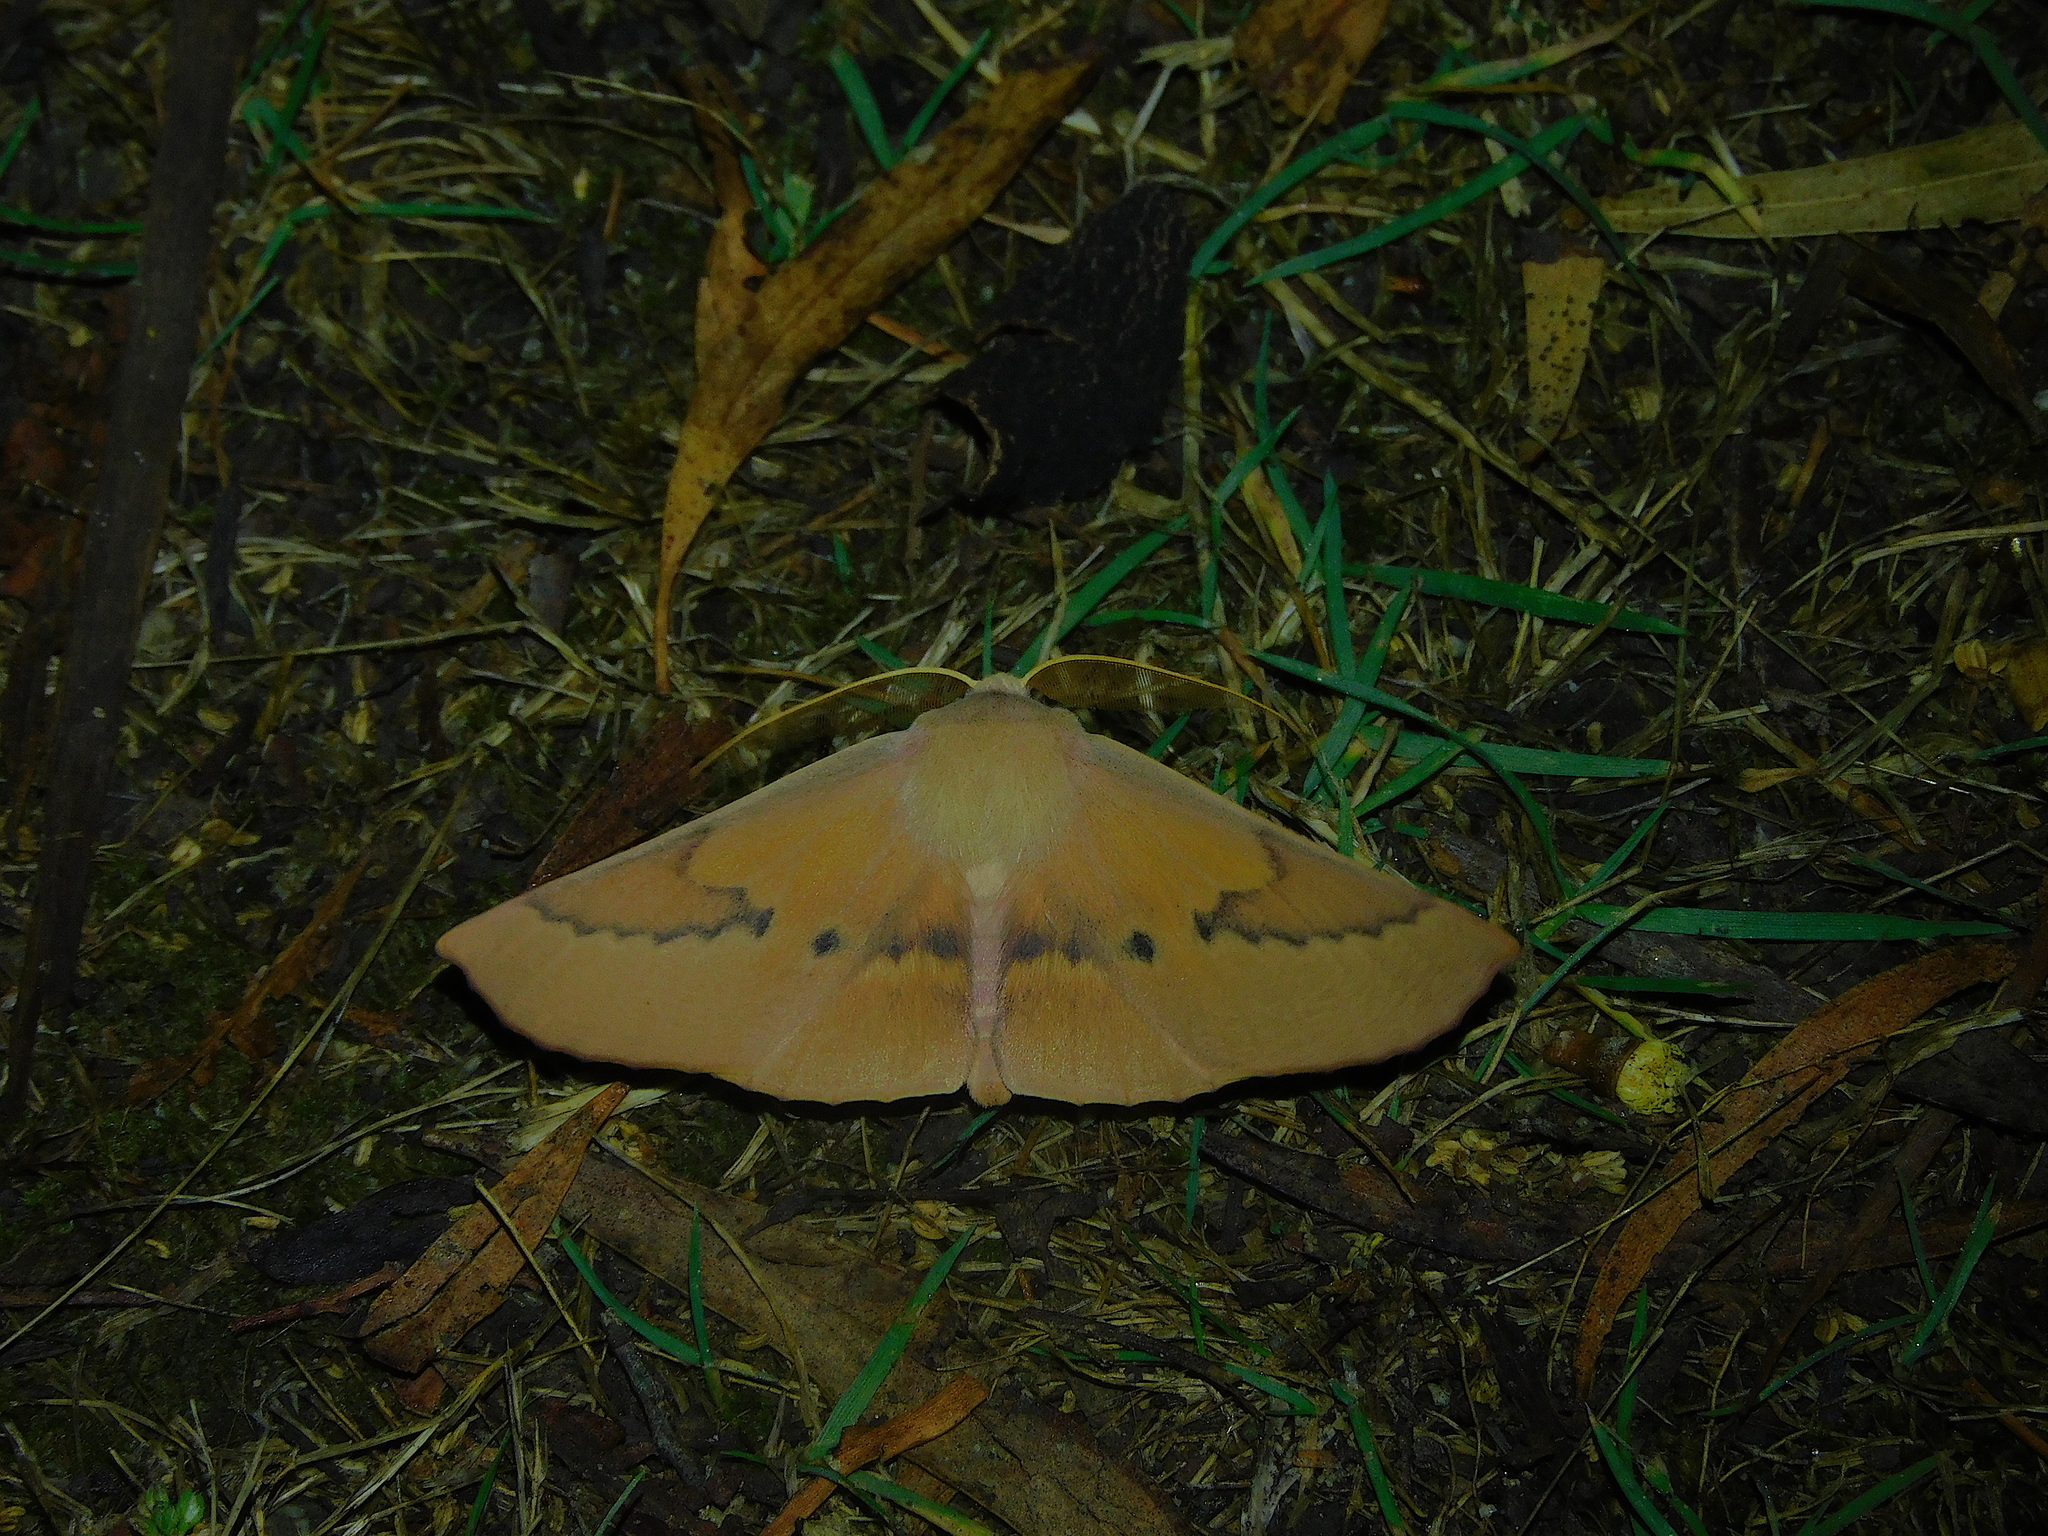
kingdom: Animalia
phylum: Arthropoda
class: Insecta
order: Lepidoptera
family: Geometridae
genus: Monoctenia
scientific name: Monoctenia falernaria
